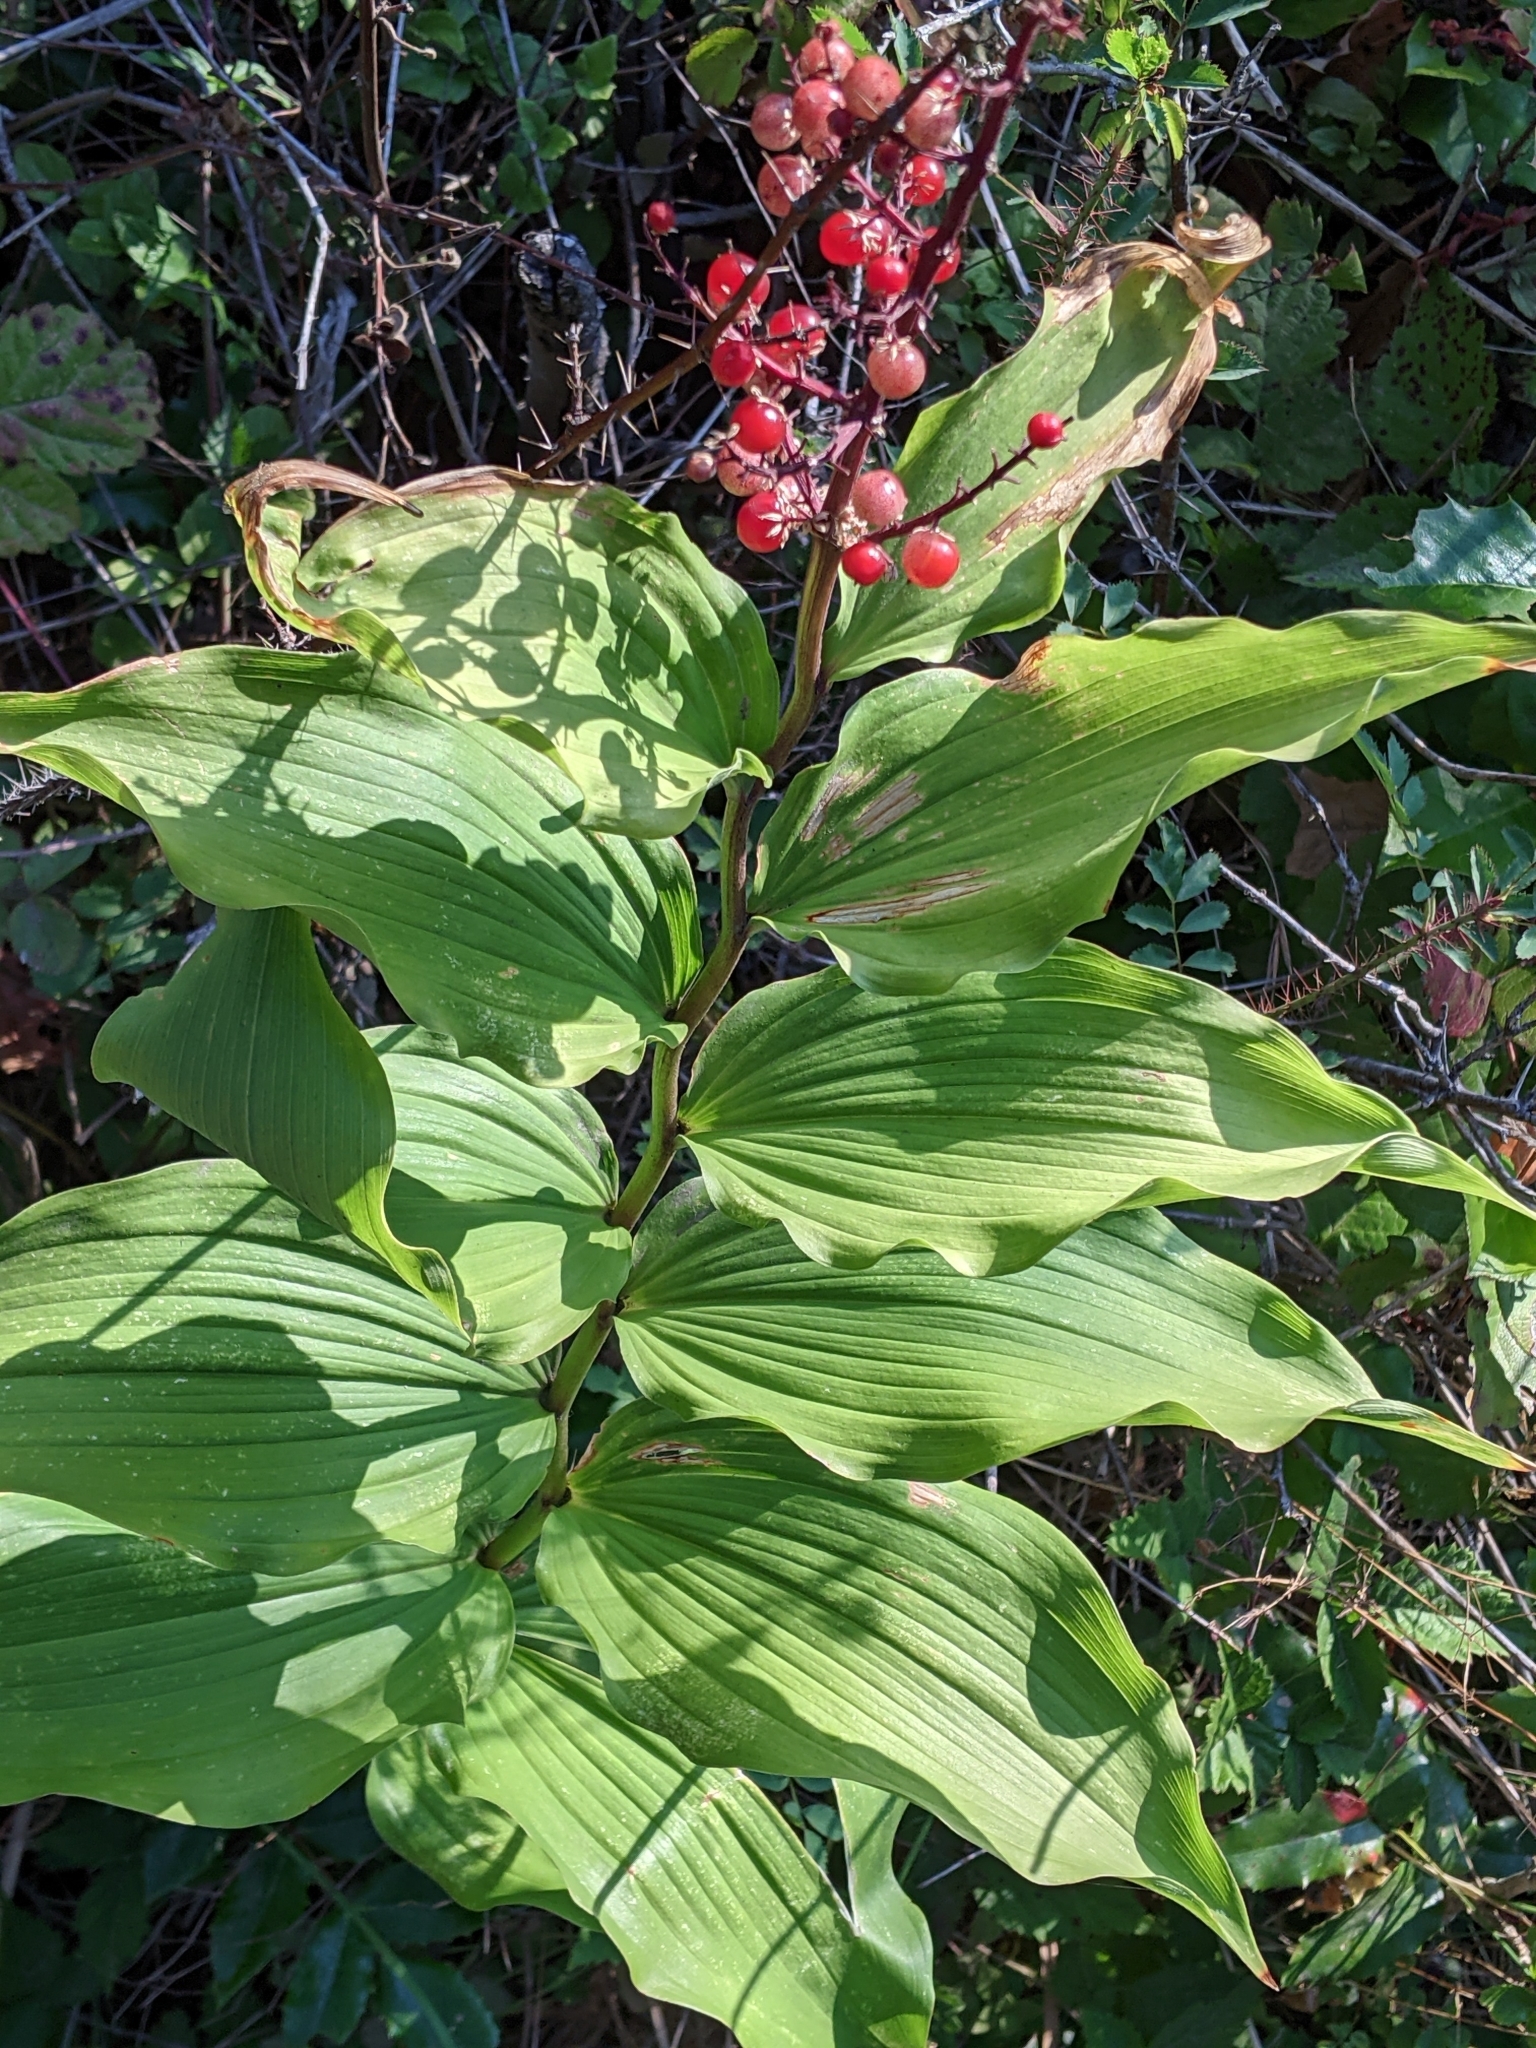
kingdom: Plantae
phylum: Tracheophyta
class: Liliopsida
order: Asparagales
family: Asparagaceae
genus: Maianthemum
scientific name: Maianthemum racemosum
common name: False spikenard
